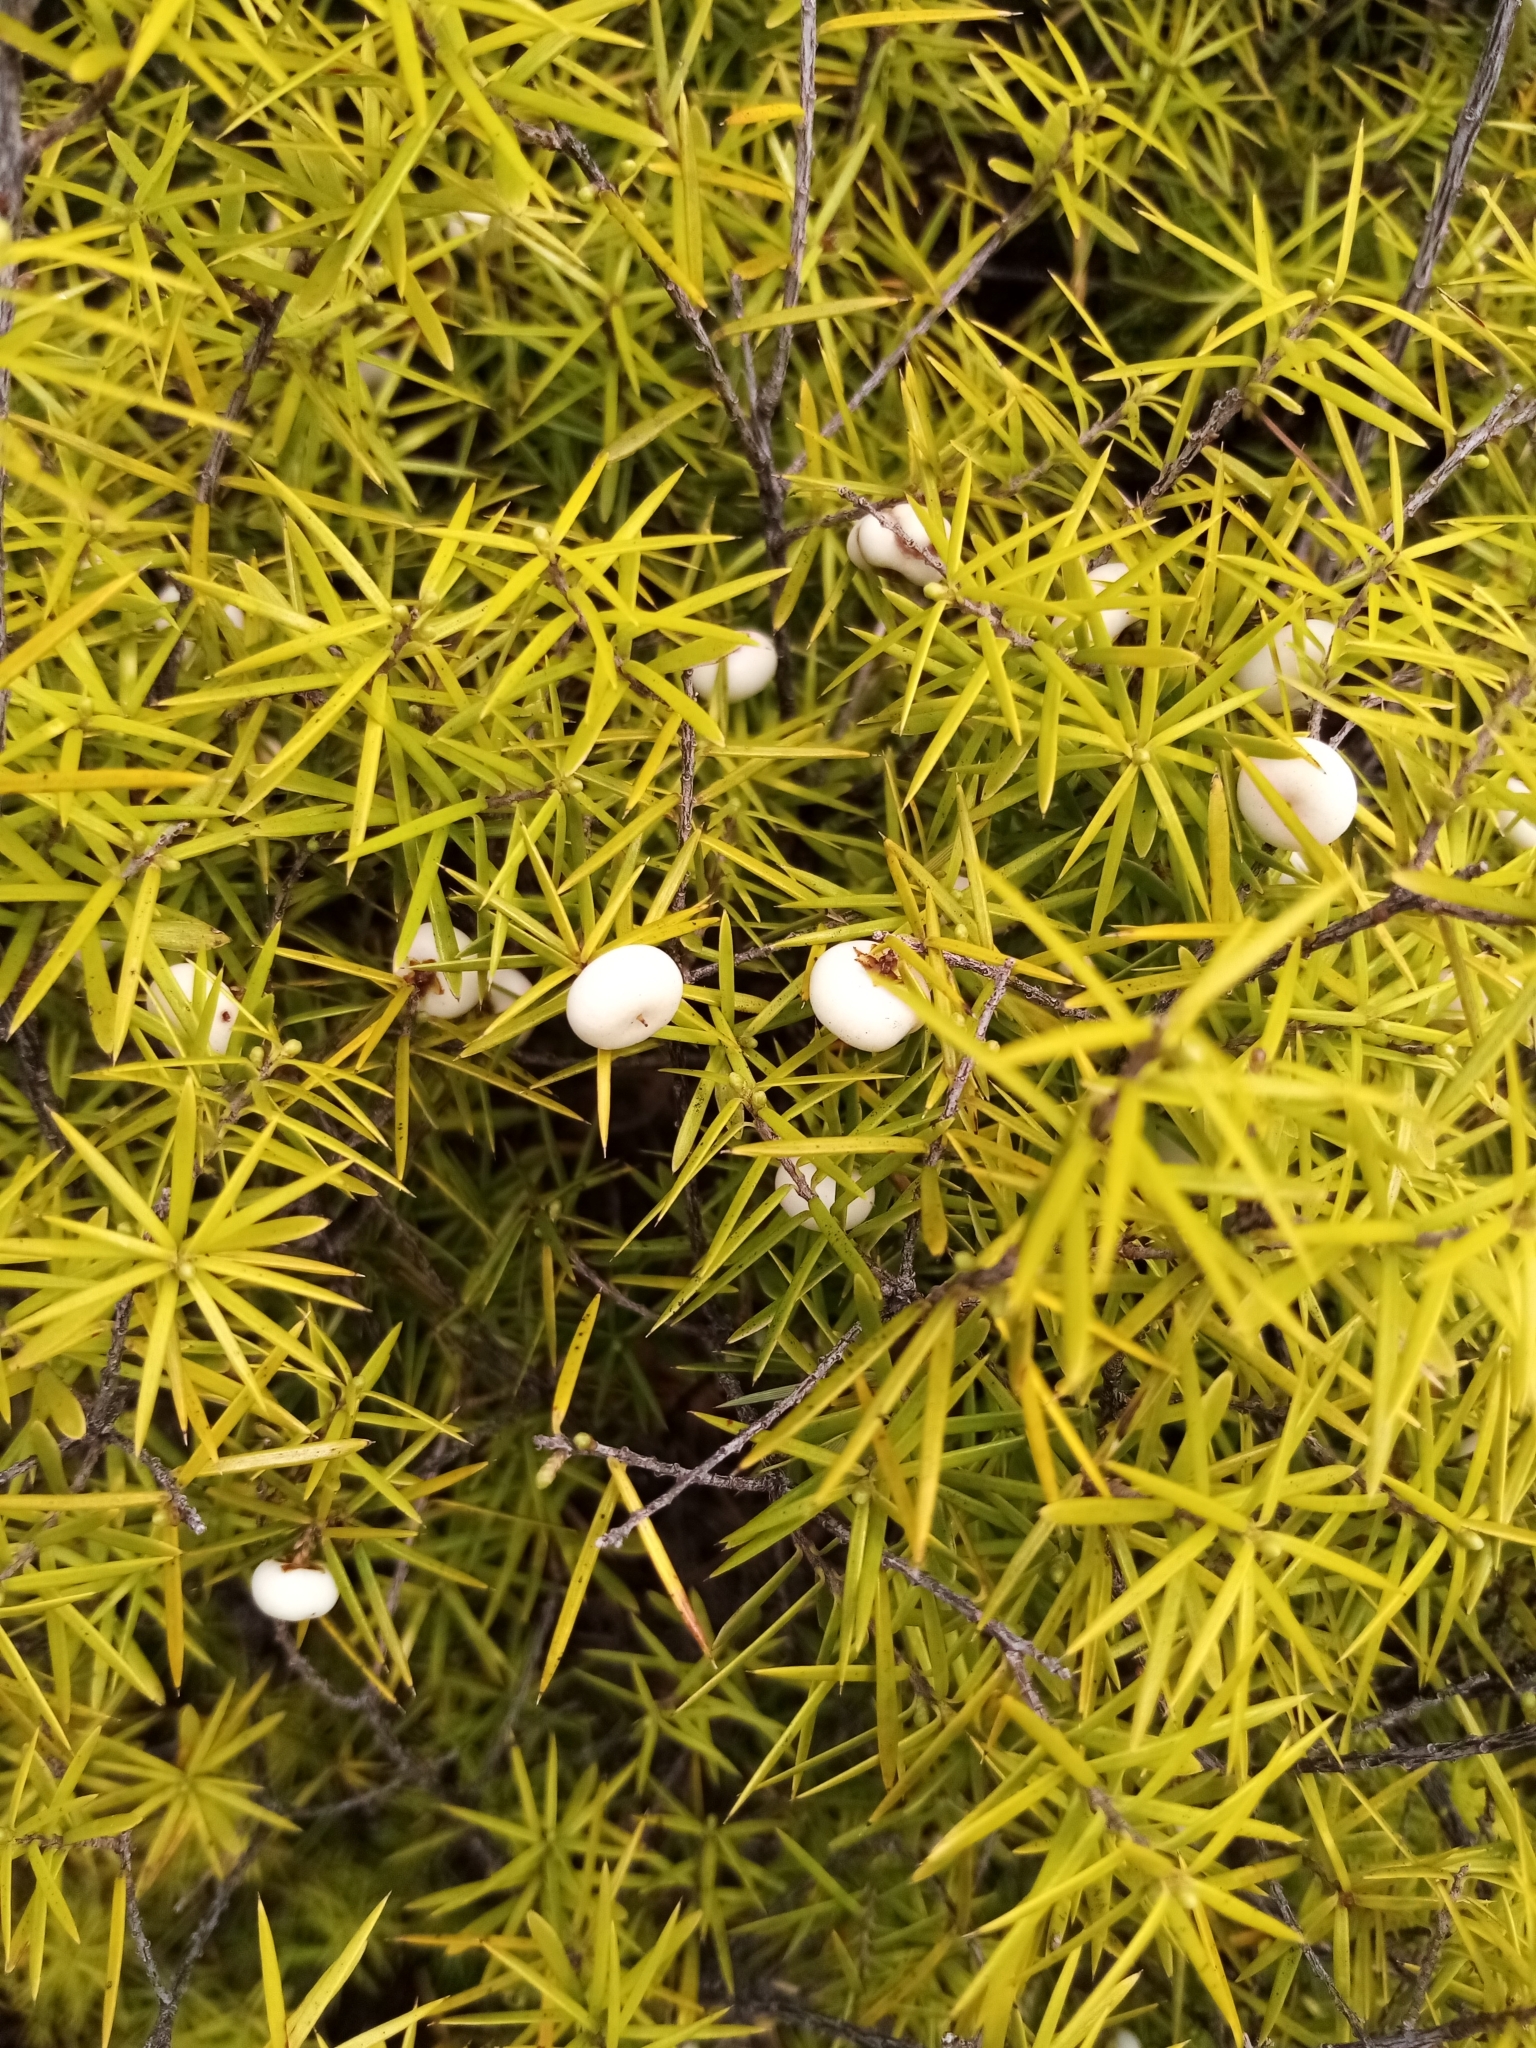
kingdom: Plantae
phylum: Tracheophyta
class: Magnoliopsida
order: Ericales
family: Ericaceae
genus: Leptecophylla
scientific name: Leptecophylla juniperina
